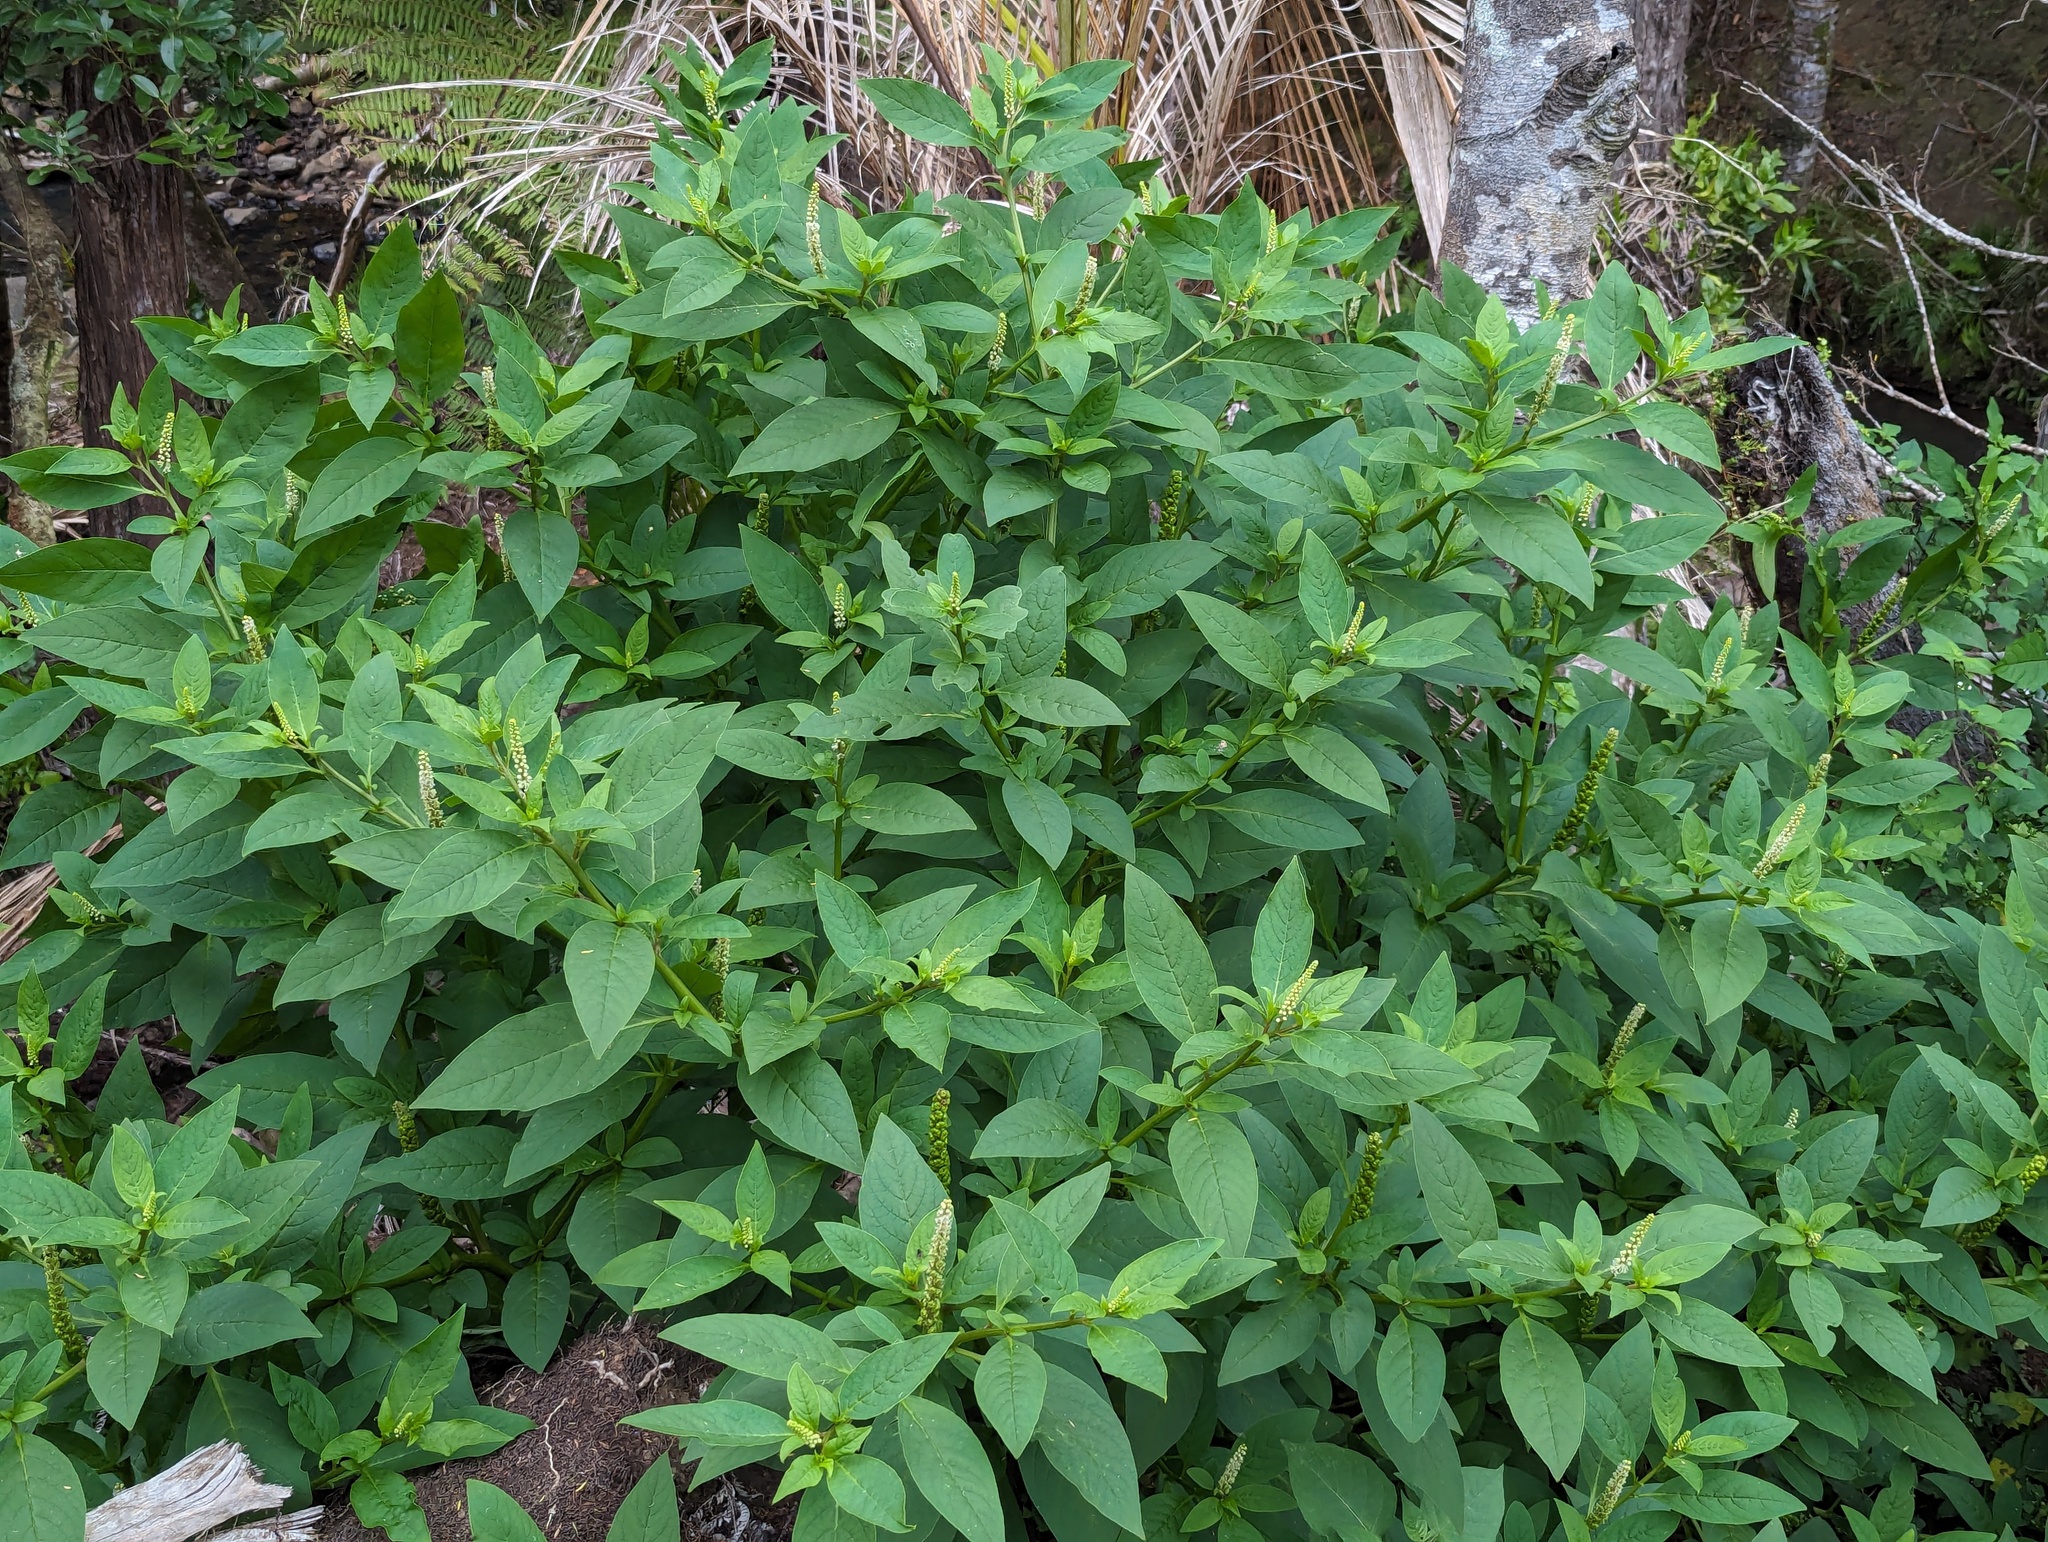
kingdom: Plantae
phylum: Tracheophyta
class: Magnoliopsida
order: Caryophyllales
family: Phytolaccaceae
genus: Phytolacca
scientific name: Phytolacca icosandra
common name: Button pokeweed
